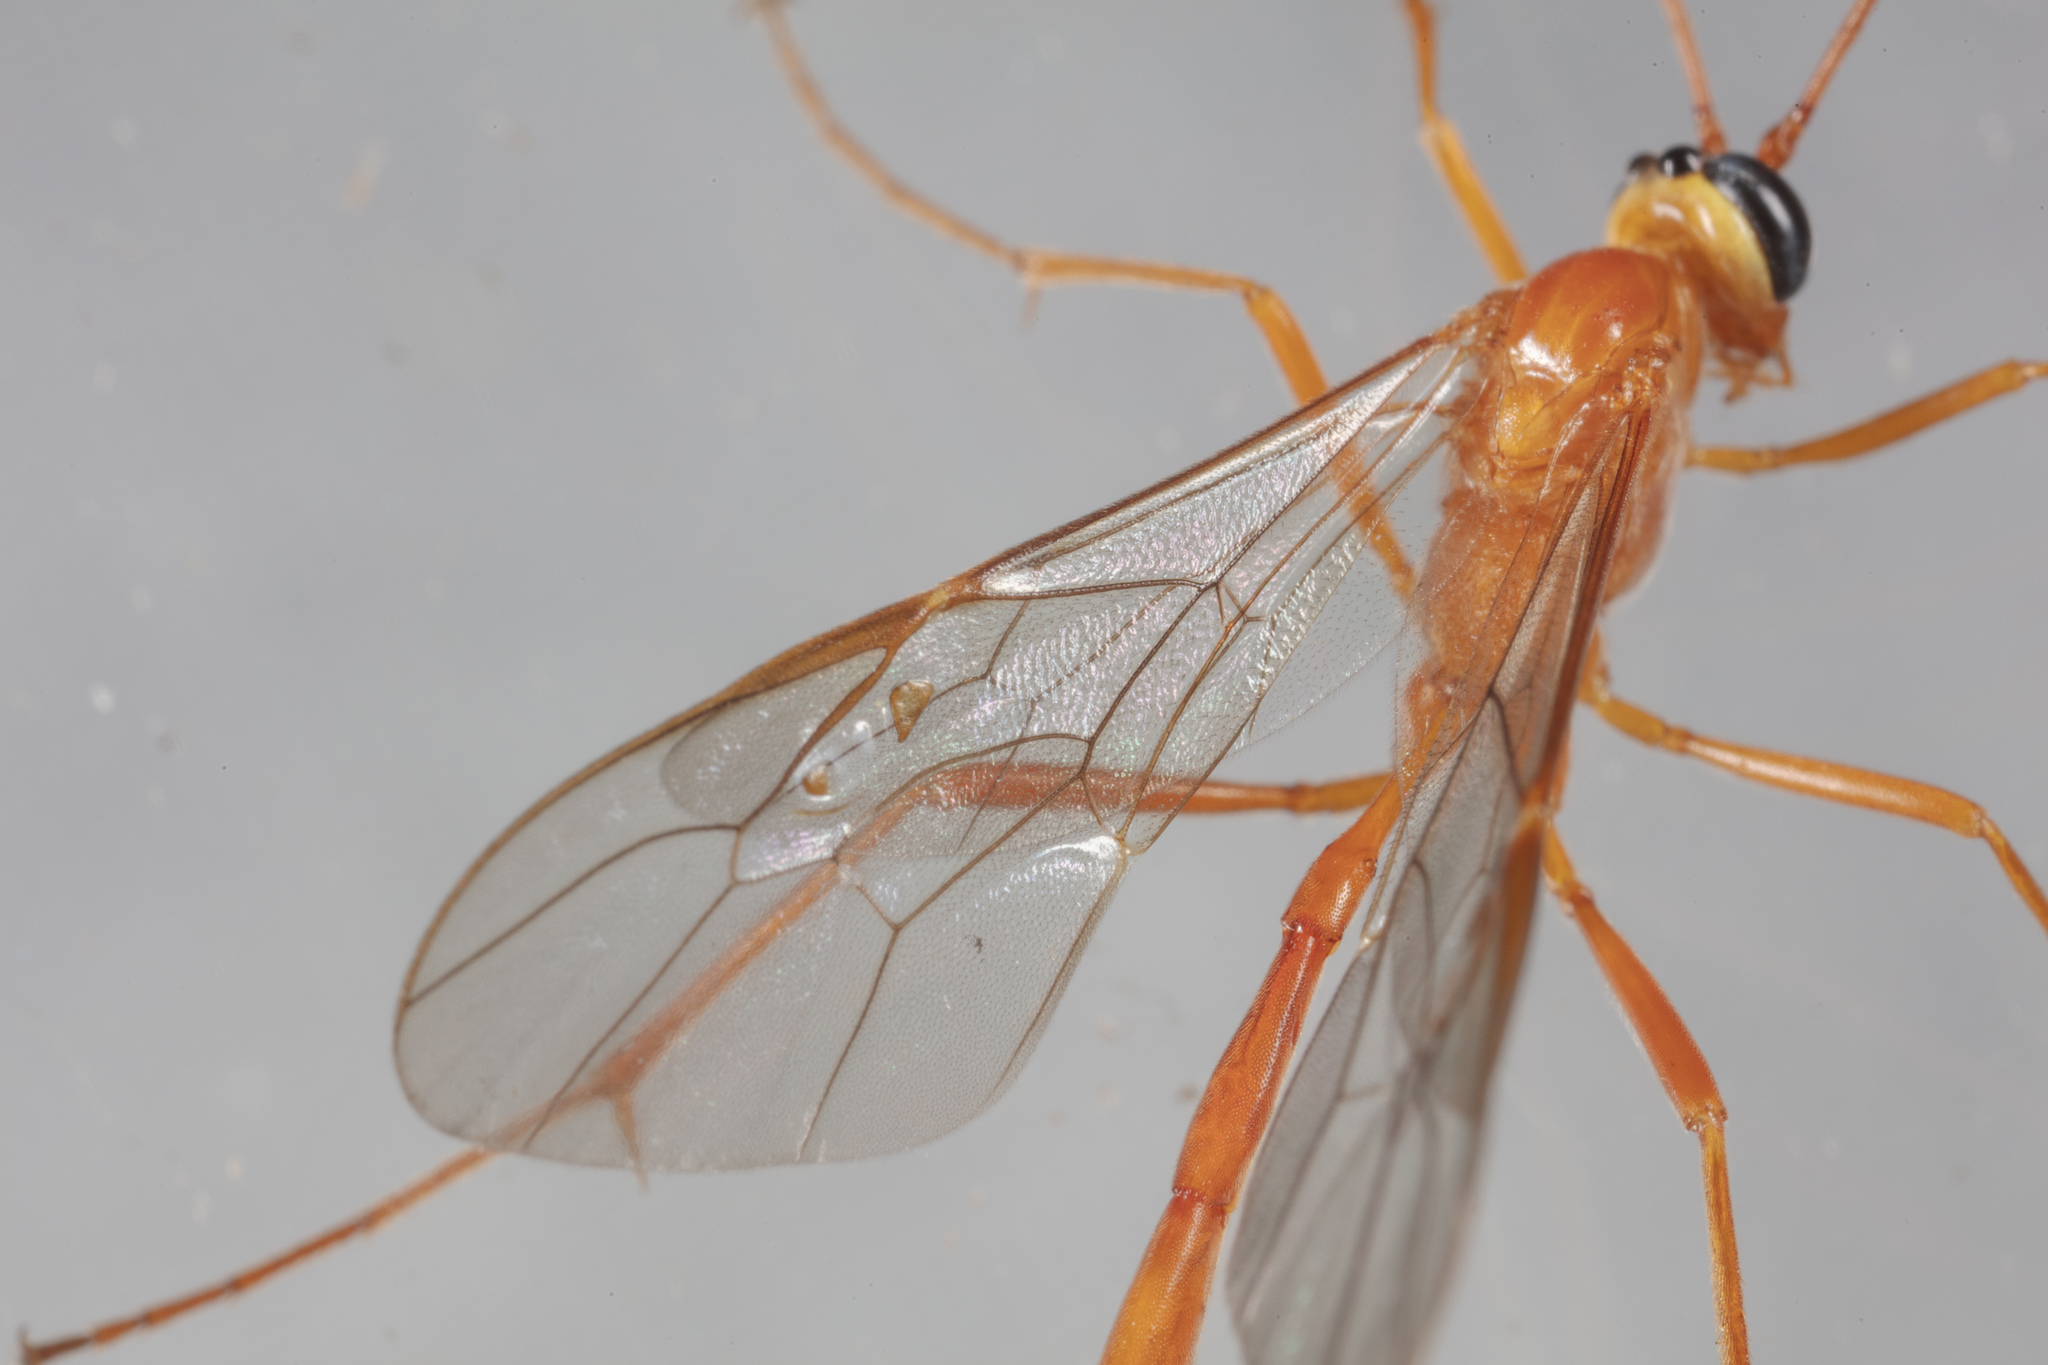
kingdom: Animalia
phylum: Arthropoda
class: Insecta
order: Hymenoptera
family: Ichneumonidae
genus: Enicospilus
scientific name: Enicospilus purgatus
